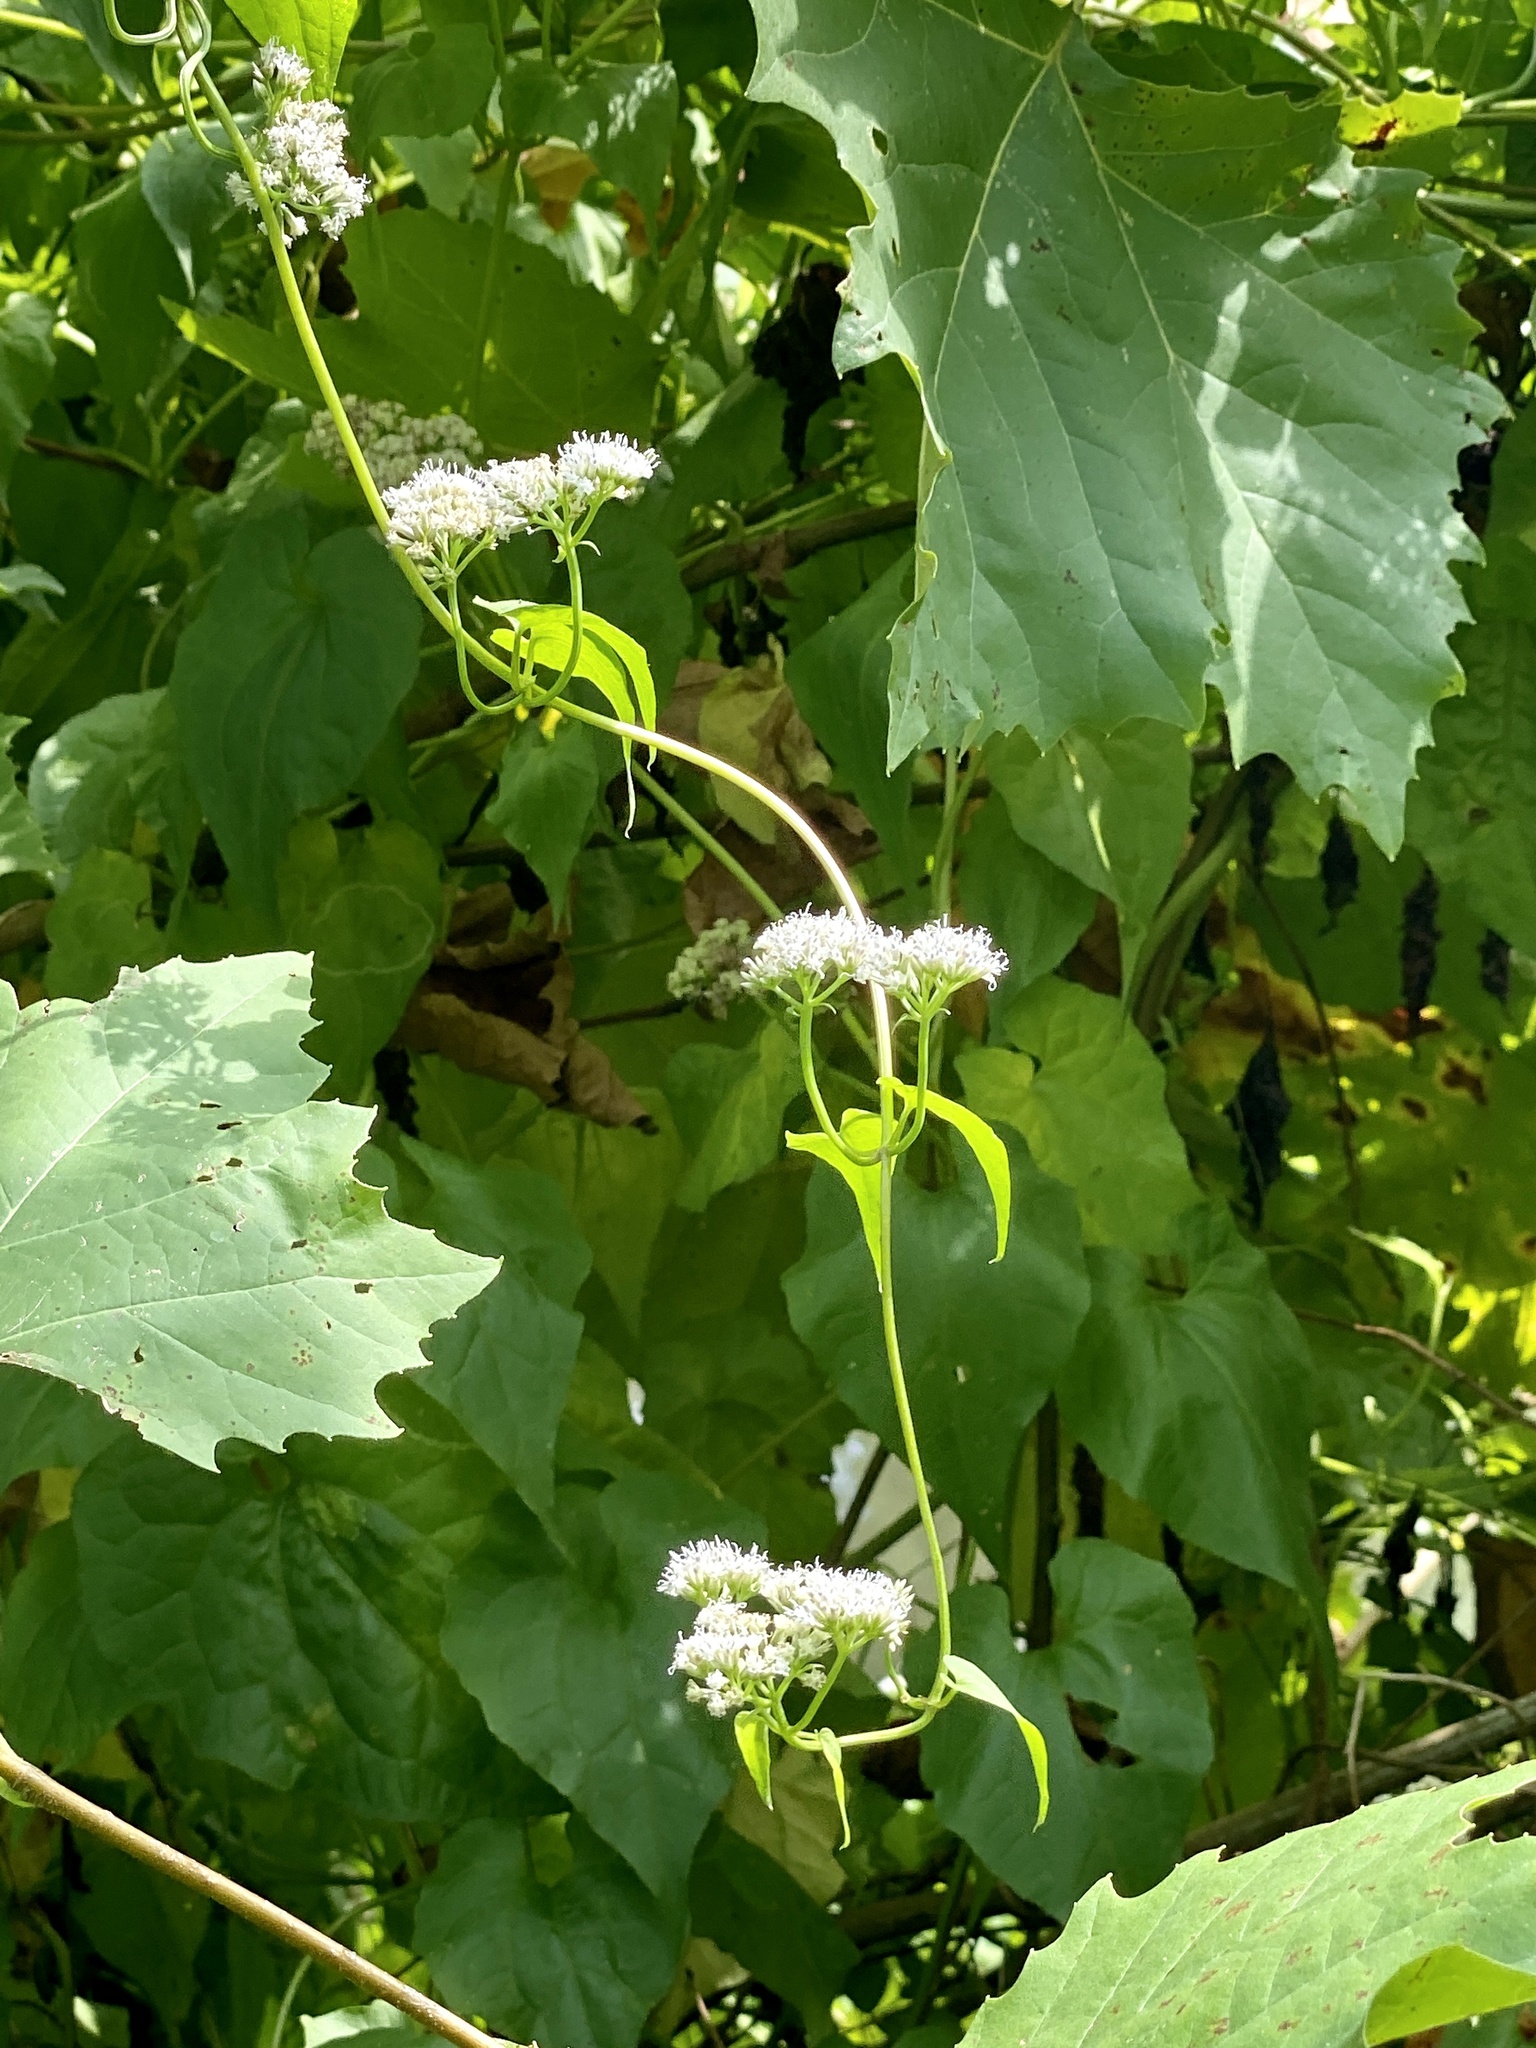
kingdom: Plantae
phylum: Tracheophyta
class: Magnoliopsida
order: Asterales
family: Asteraceae
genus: Mikania
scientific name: Mikania scandens
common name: Climbing hempvine
